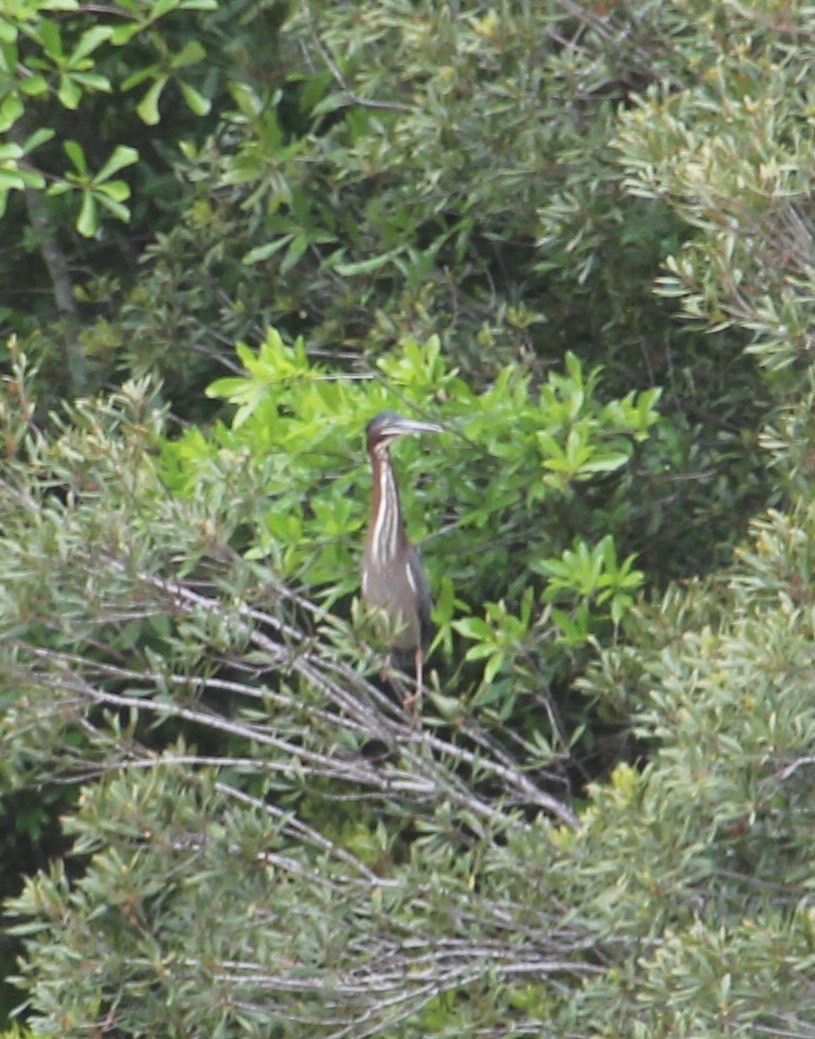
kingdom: Animalia
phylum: Chordata
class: Aves
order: Pelecaniformes
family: Ardeidae
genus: Butorides
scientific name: Butorides virescens
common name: Green heron
